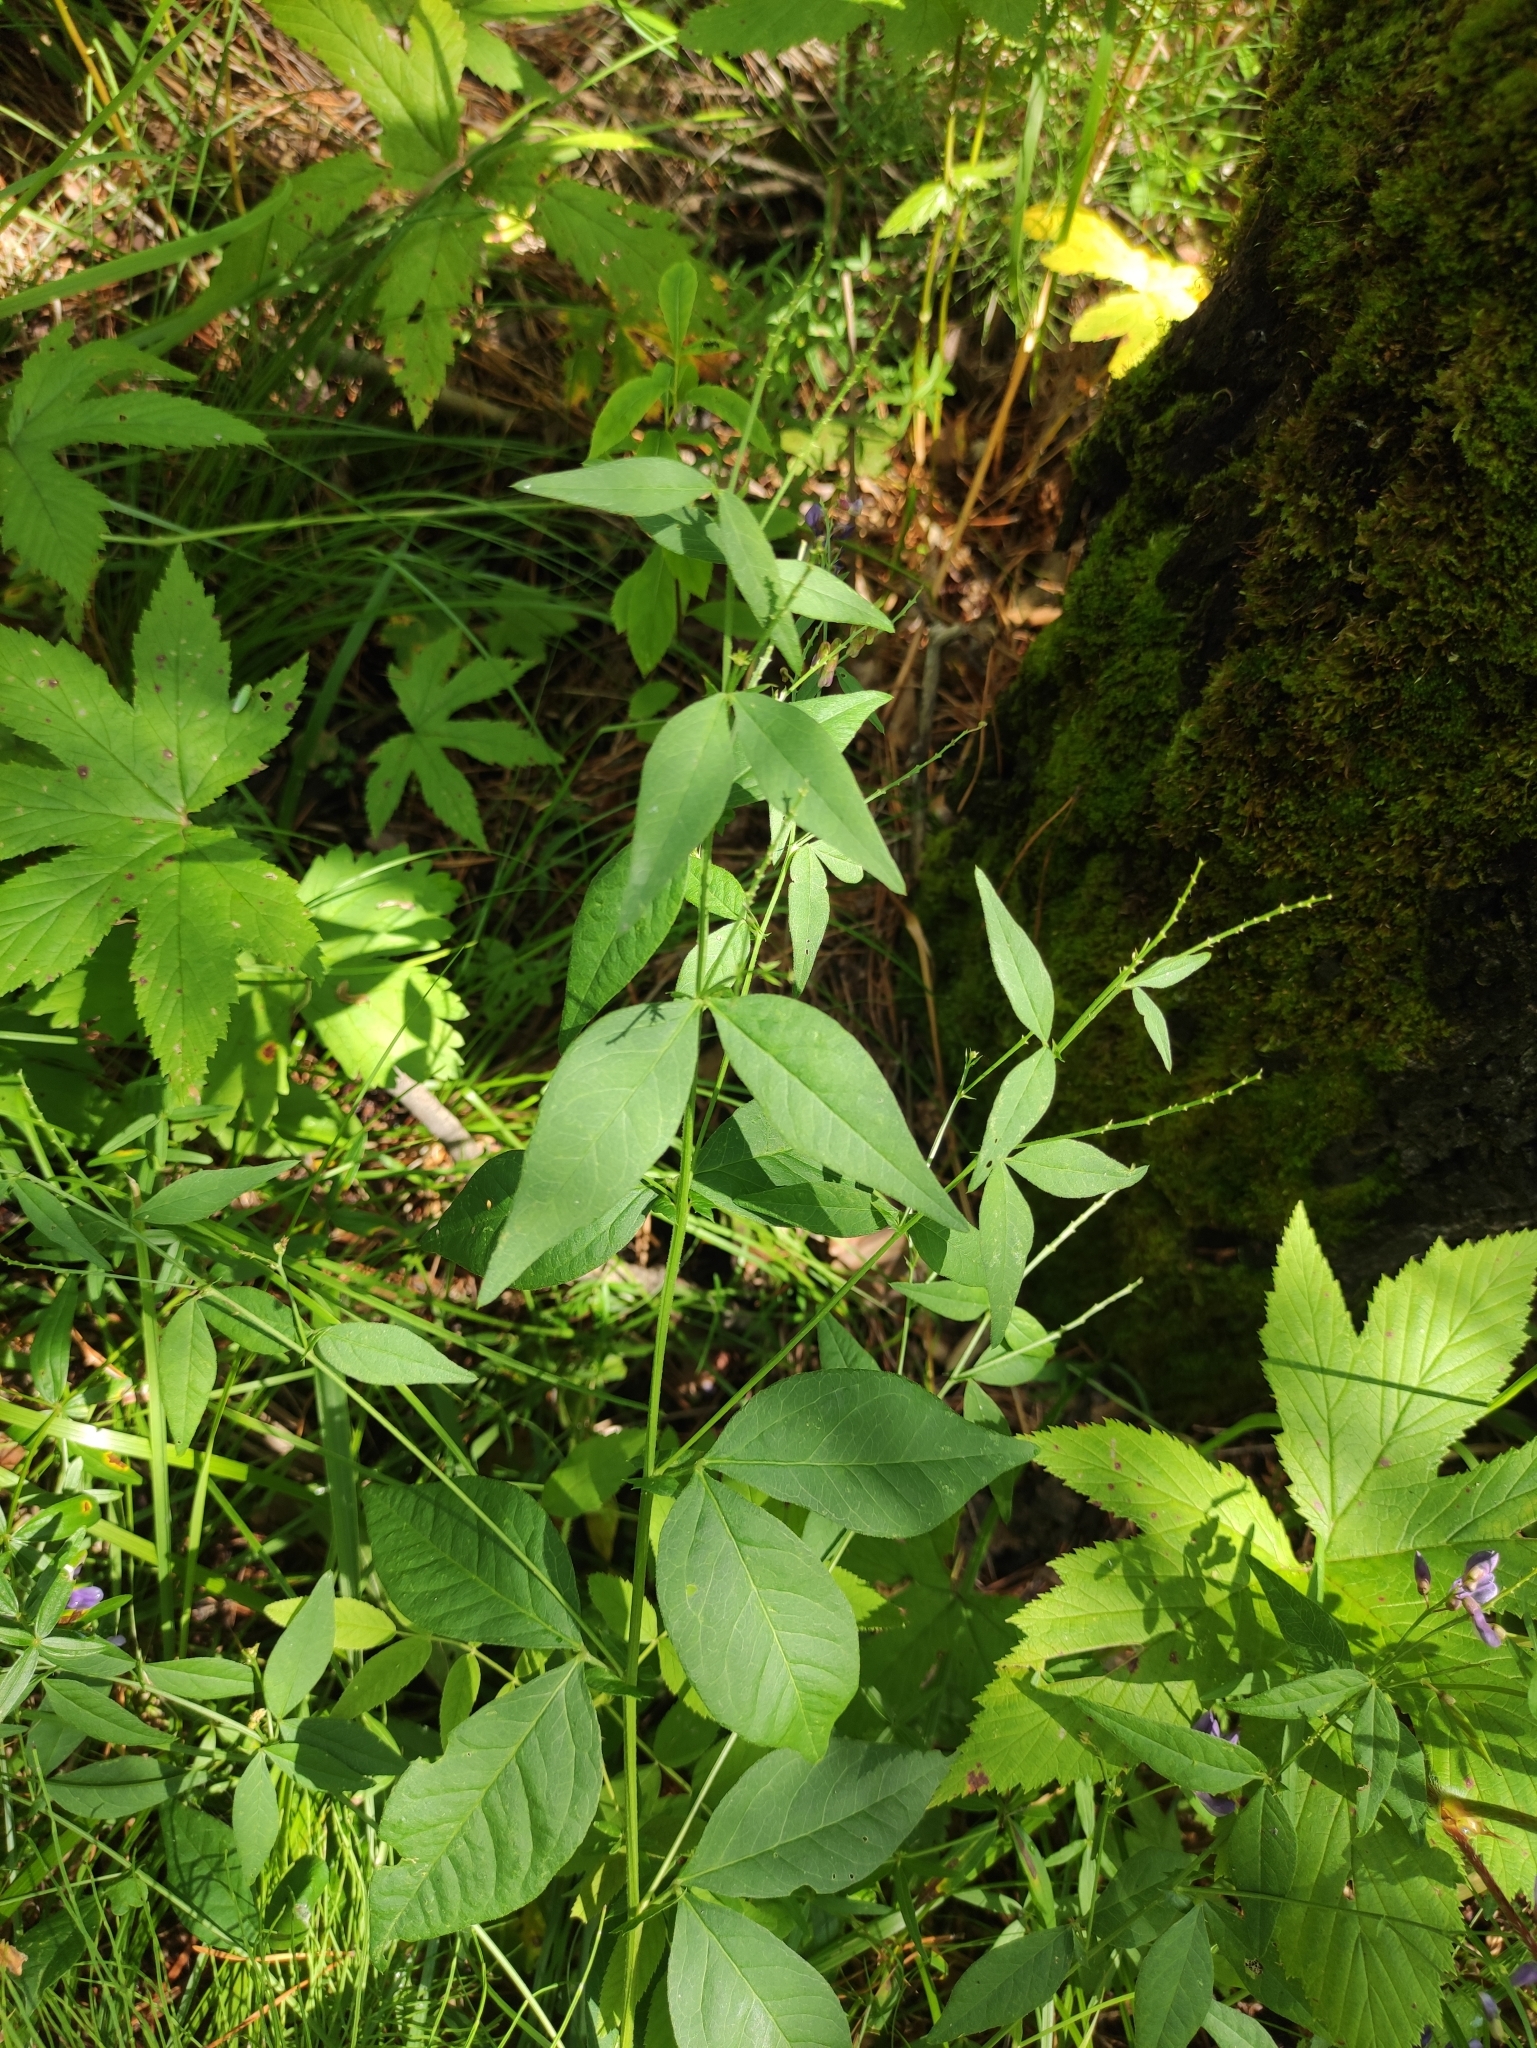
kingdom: Plantae
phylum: Tracheophyta
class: Magnoliopsida
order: Fabales
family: Fabaceae
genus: Vicia
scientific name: Vicia unijuga
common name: Two-leaf vetch
